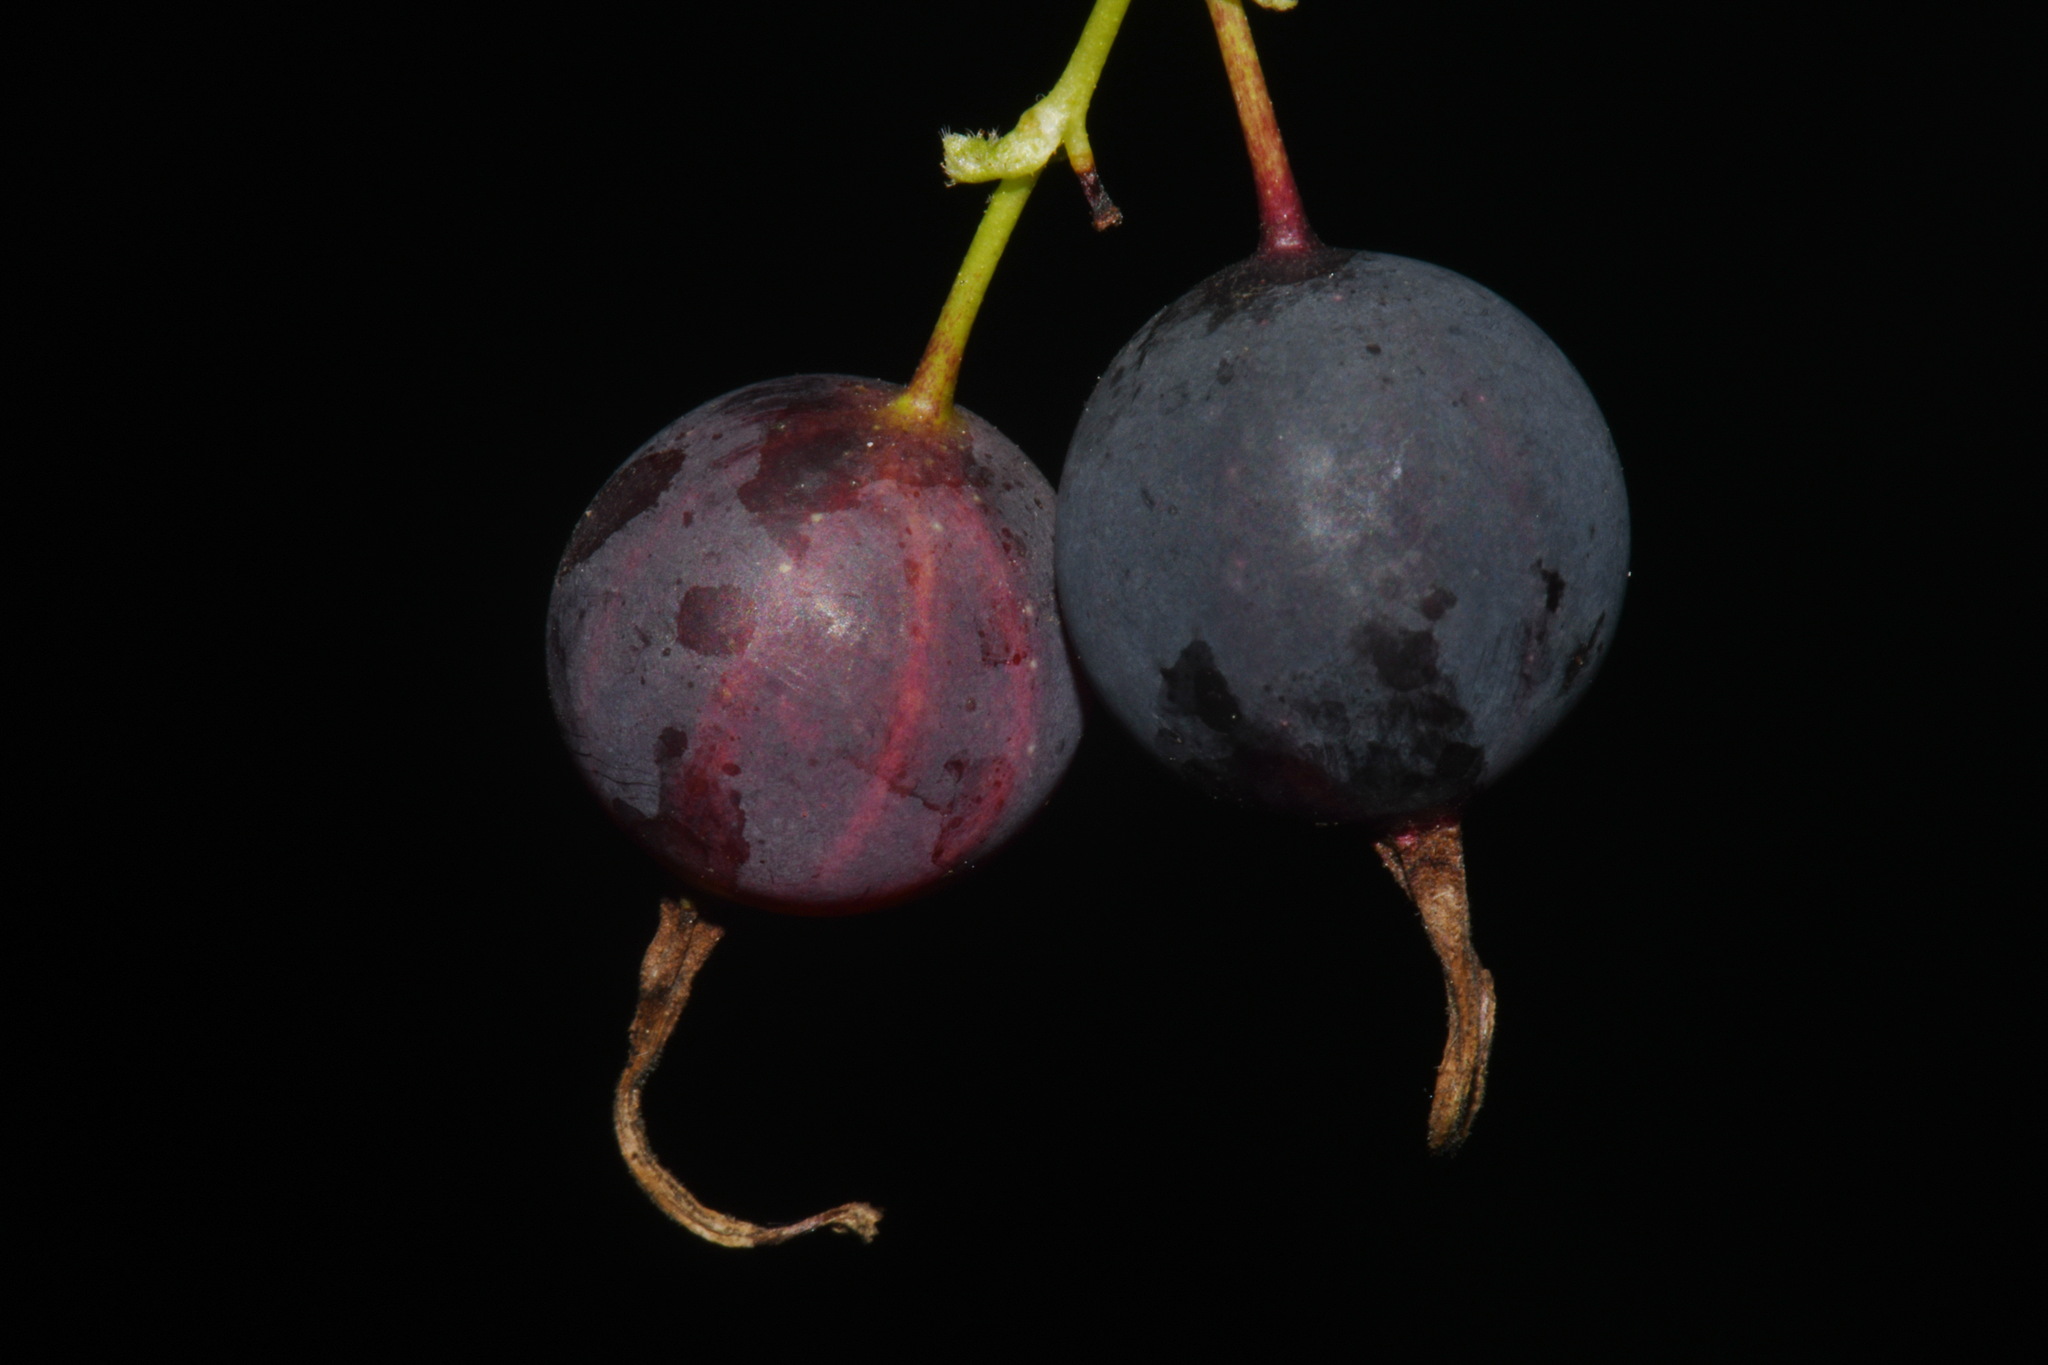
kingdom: Plantae
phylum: Tracheophyta
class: Magnoliopsida
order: Saxifragales
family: Grossulariaceae
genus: Ribes
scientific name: Ribes missouriense
